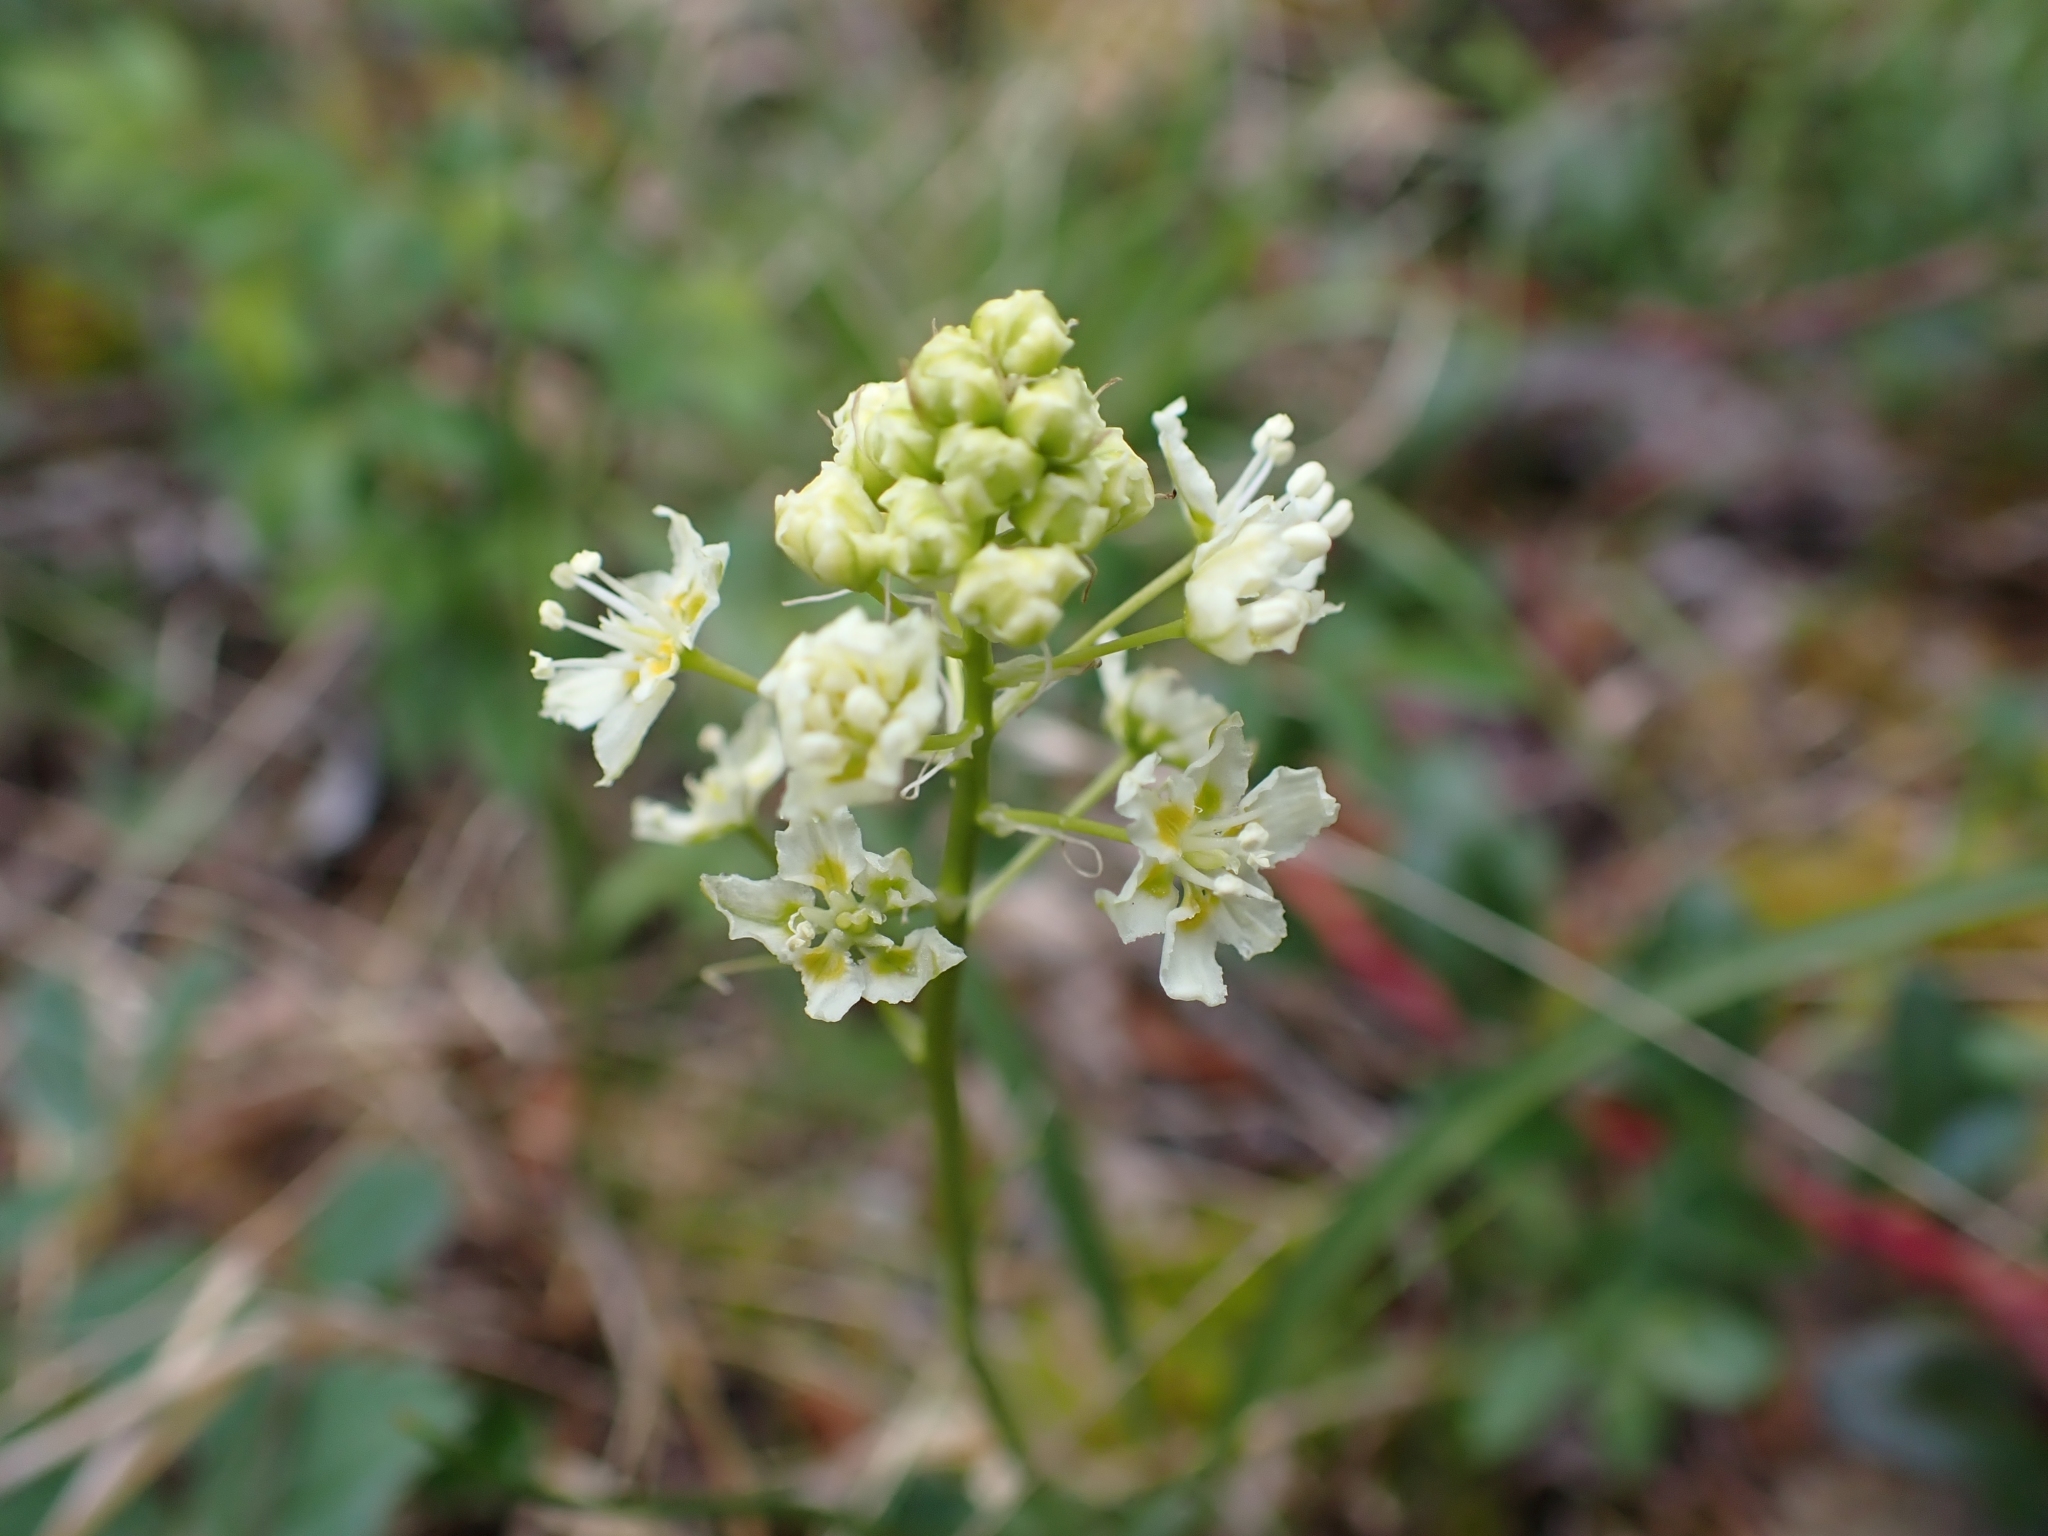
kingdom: Plantae
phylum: Tracheophyta
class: Liliopsida
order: Liliales
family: Melanthiaceae
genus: Toxicoscordion
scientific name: Toxicoscordion venenosum
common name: Meadow death camas
